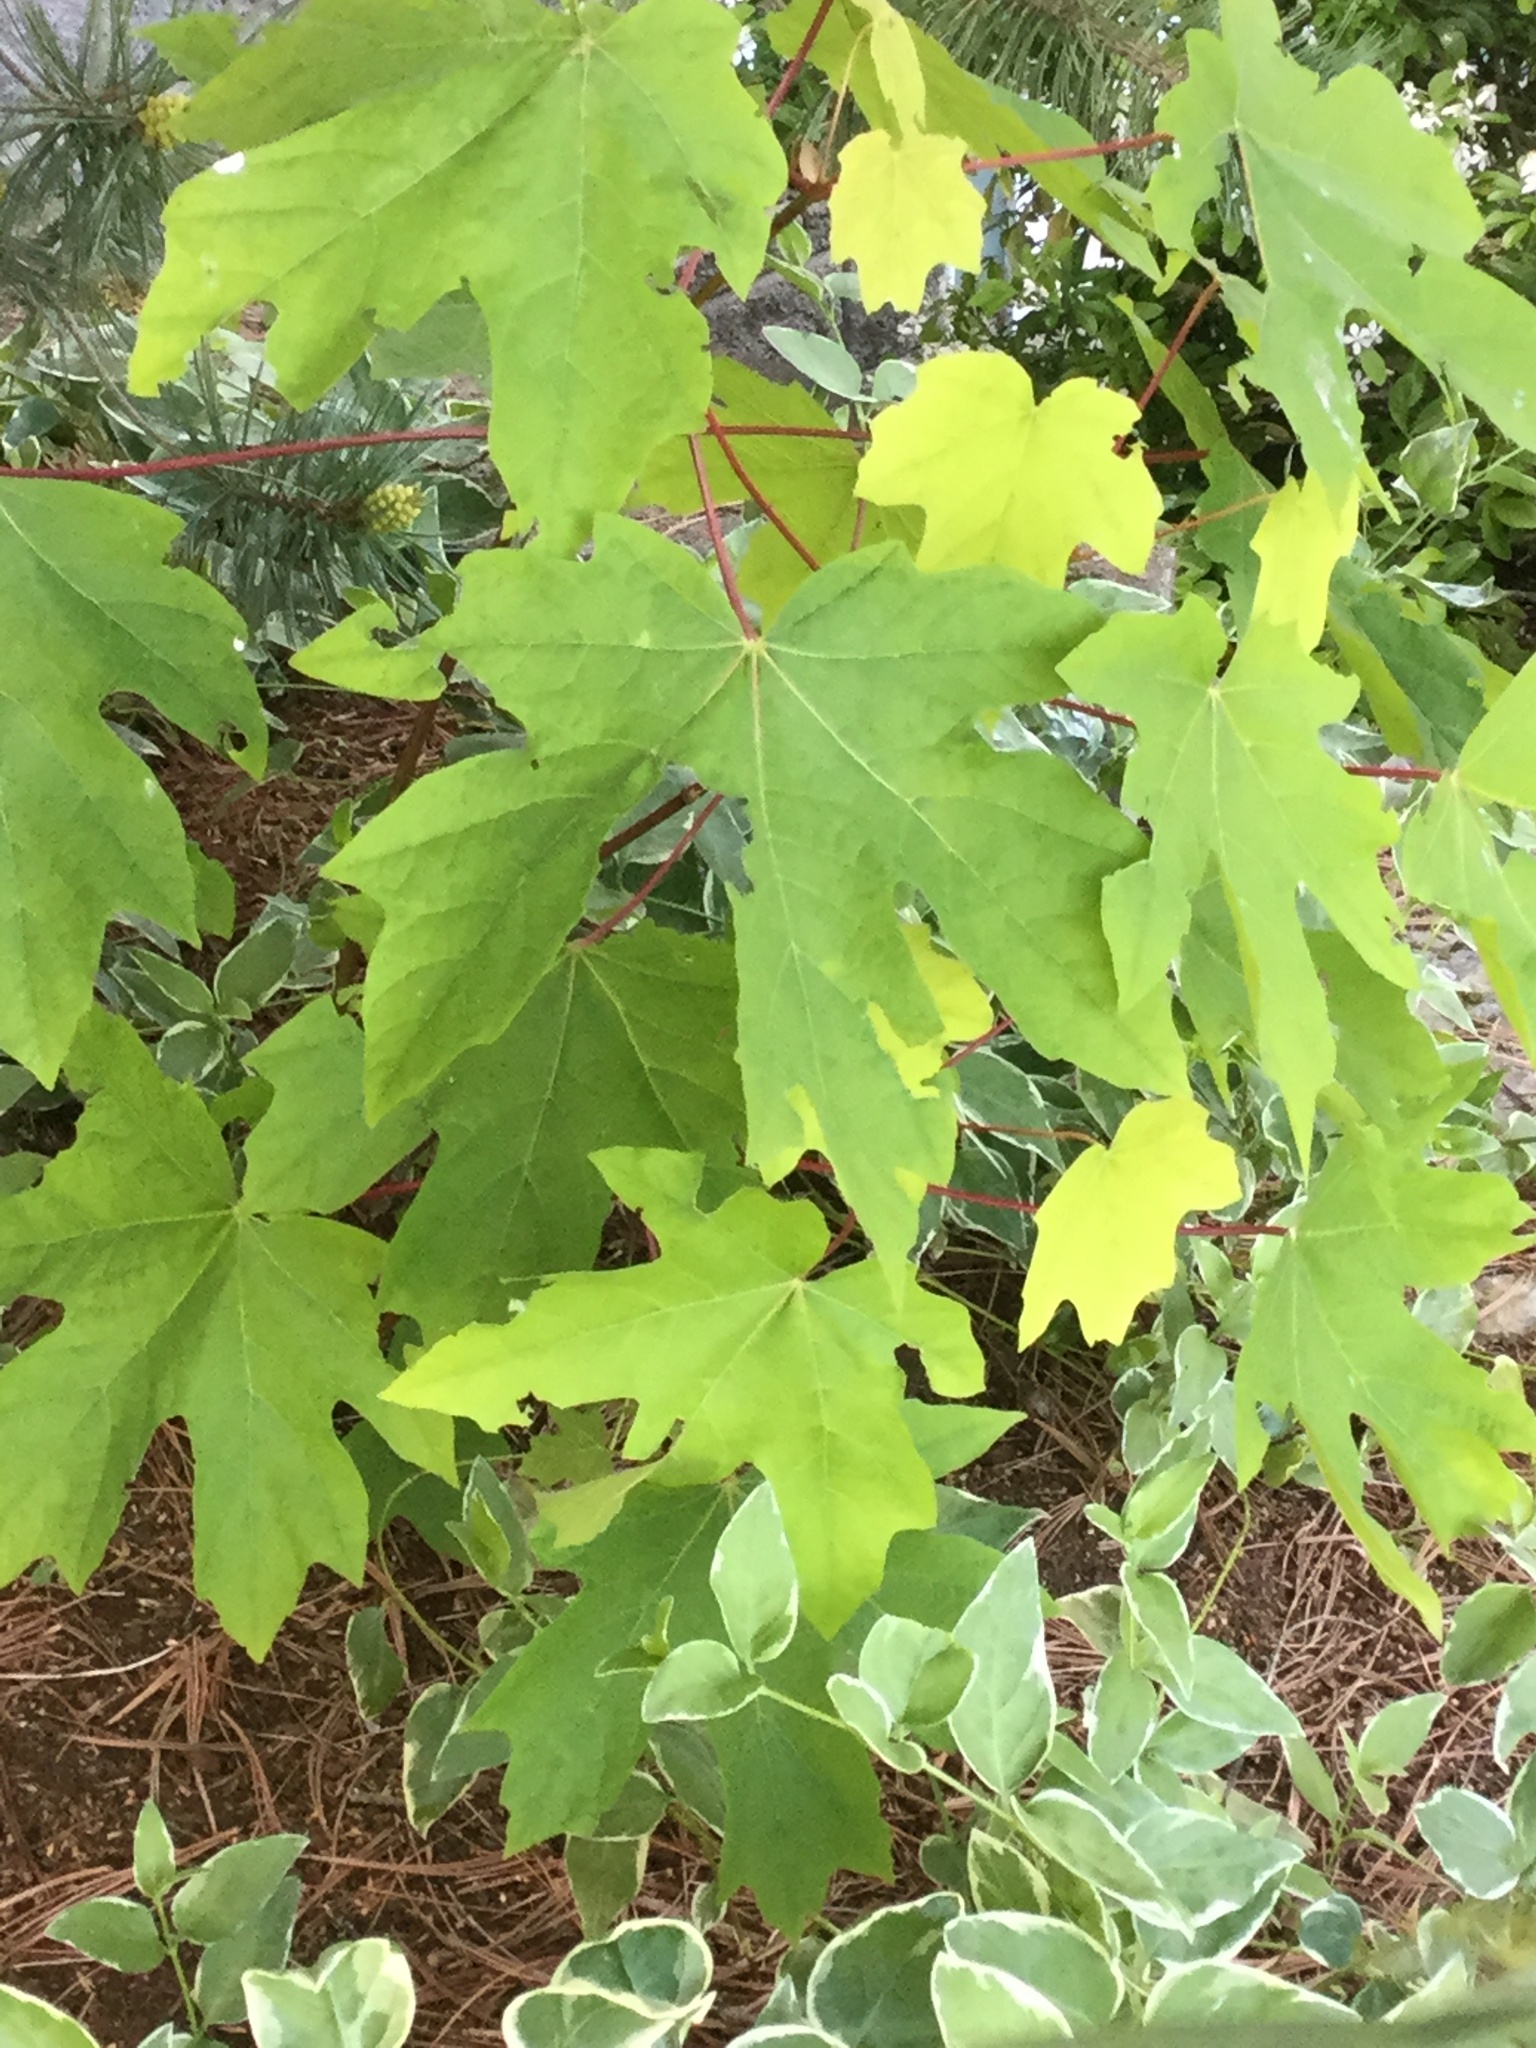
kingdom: Plantae
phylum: Tracheophyta
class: Magnoliopsida
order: Sapindales
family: Sapindaceae
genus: Acer
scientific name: Acer macrophyllum
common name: Oregon maple
